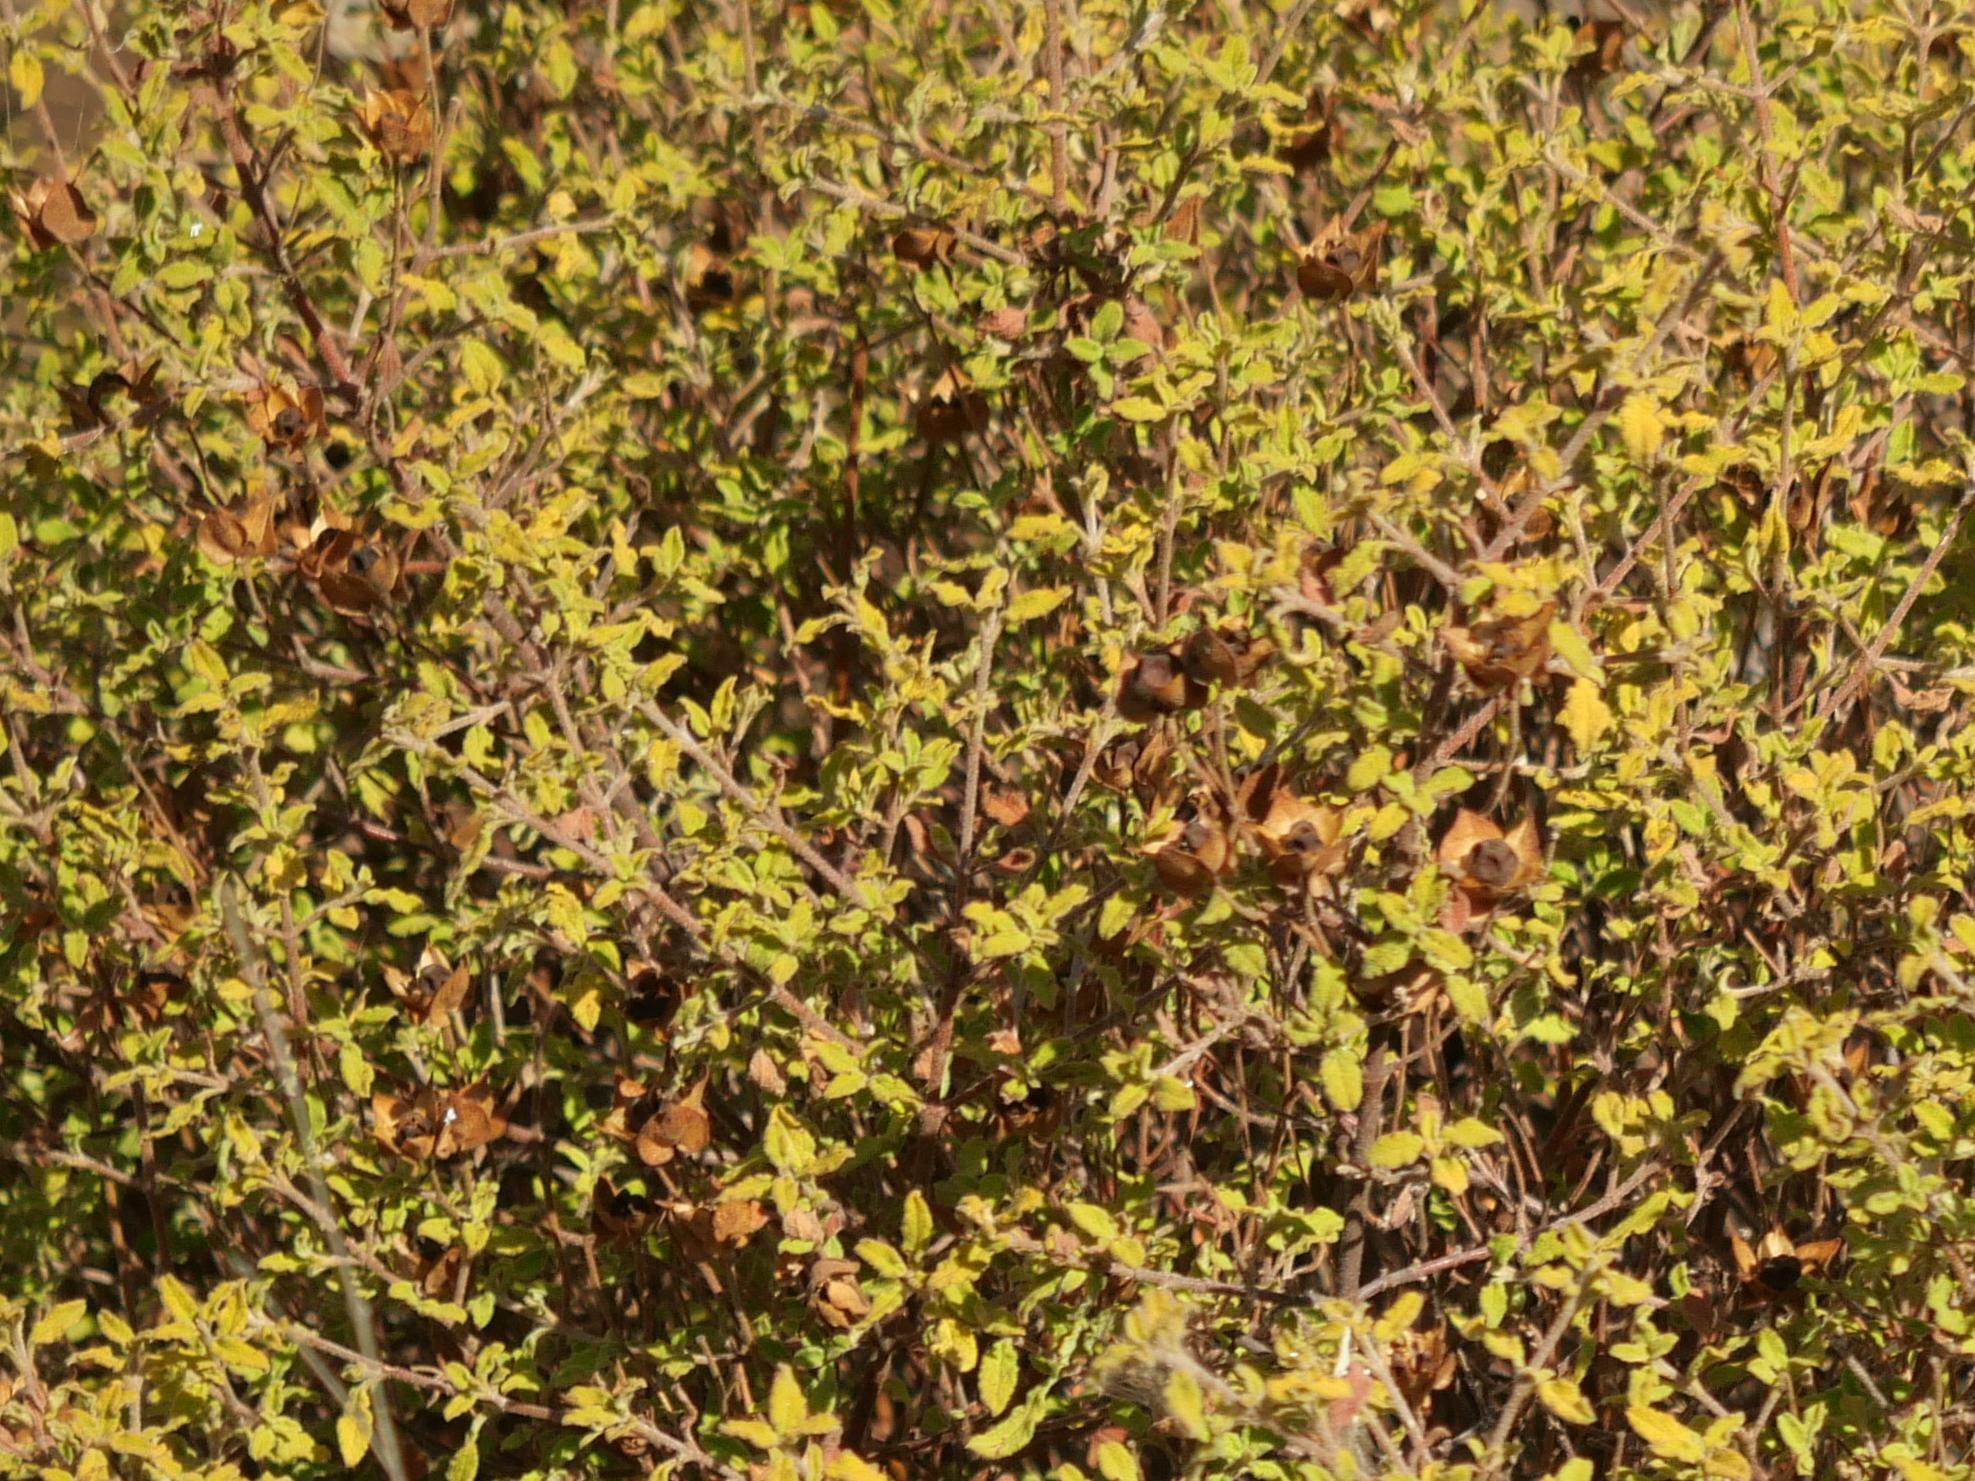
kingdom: Plantae
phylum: Tracheophyta
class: Magnoliopsida
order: Malvales
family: Cistaceae
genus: Cistus
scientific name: Cistus salviifolius
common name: Salvia cistus
